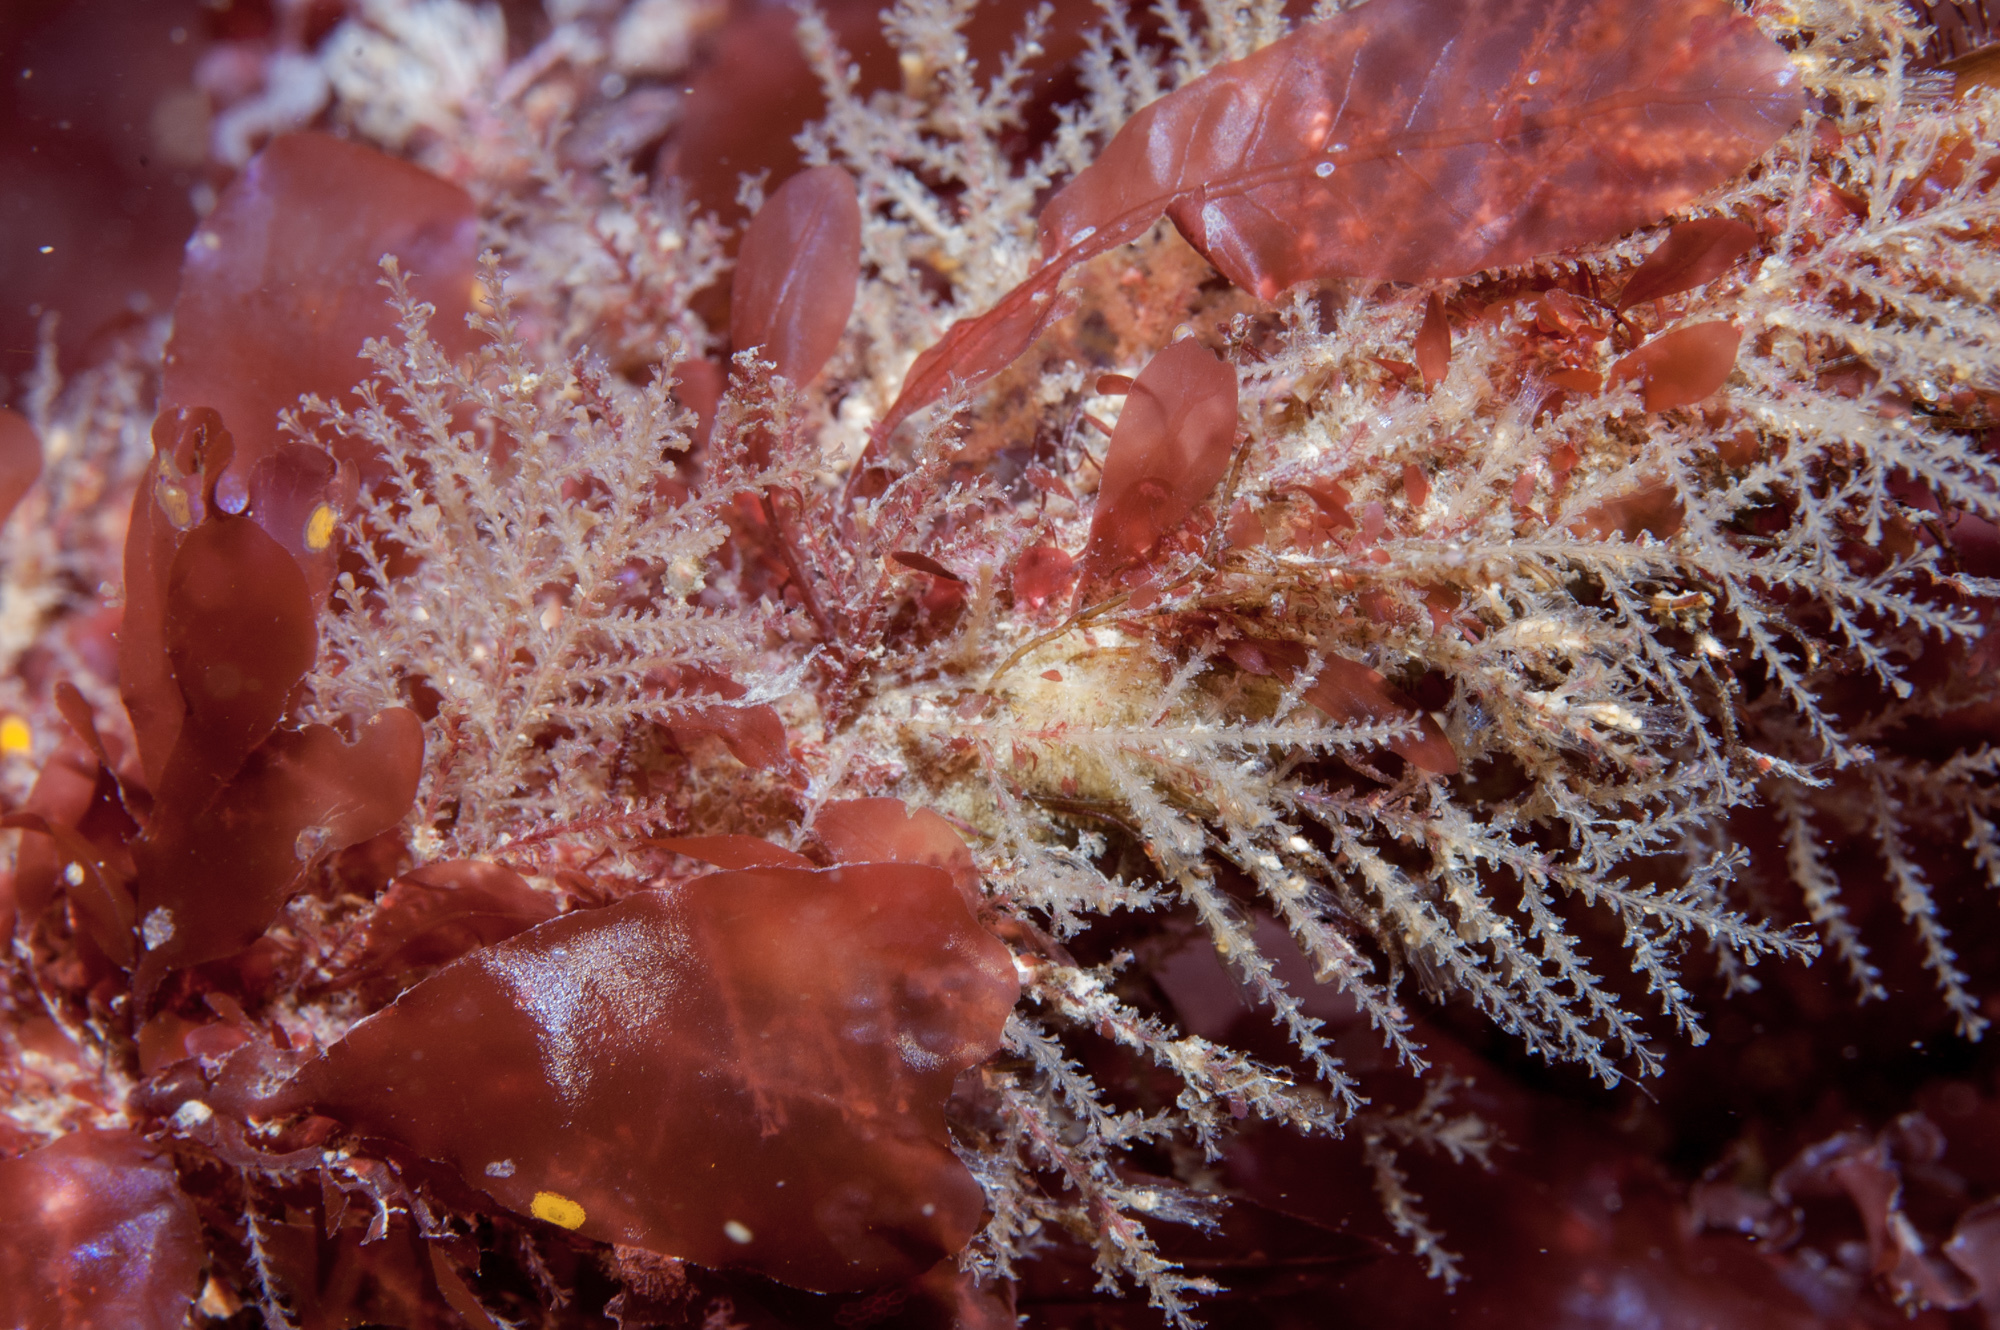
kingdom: Animalia
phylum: Cnidaria
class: Hydrozoa
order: Leptothecata
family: Sertulariidae
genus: Diphasia
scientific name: Diphasia rosacea
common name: Lily hydroid
